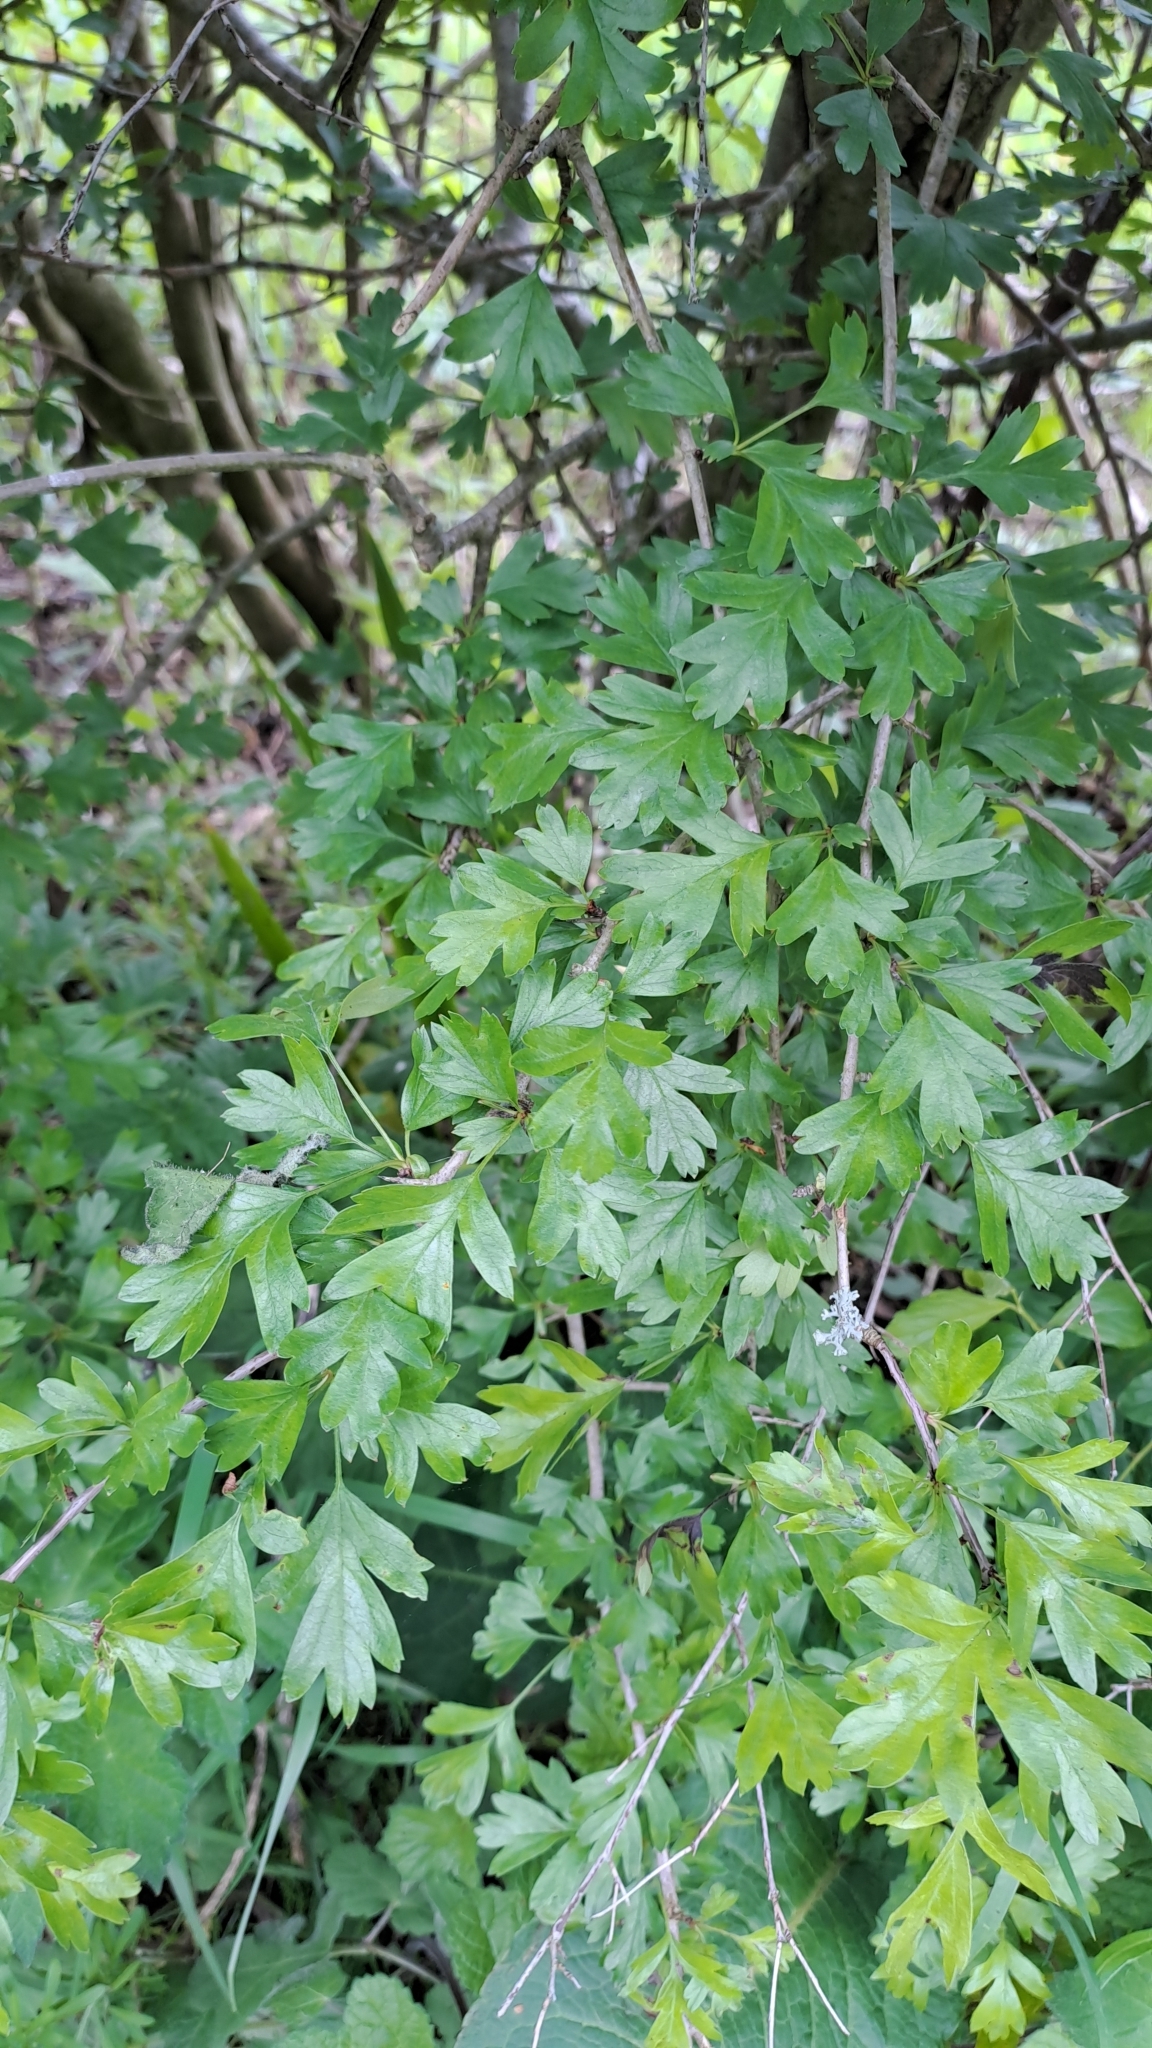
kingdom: Plantae
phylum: Tracheophyta
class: Magnoliopsida
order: Rosales
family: Rosaceae
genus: Crataegus
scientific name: Crataegus monogyna
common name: Hawthorn
